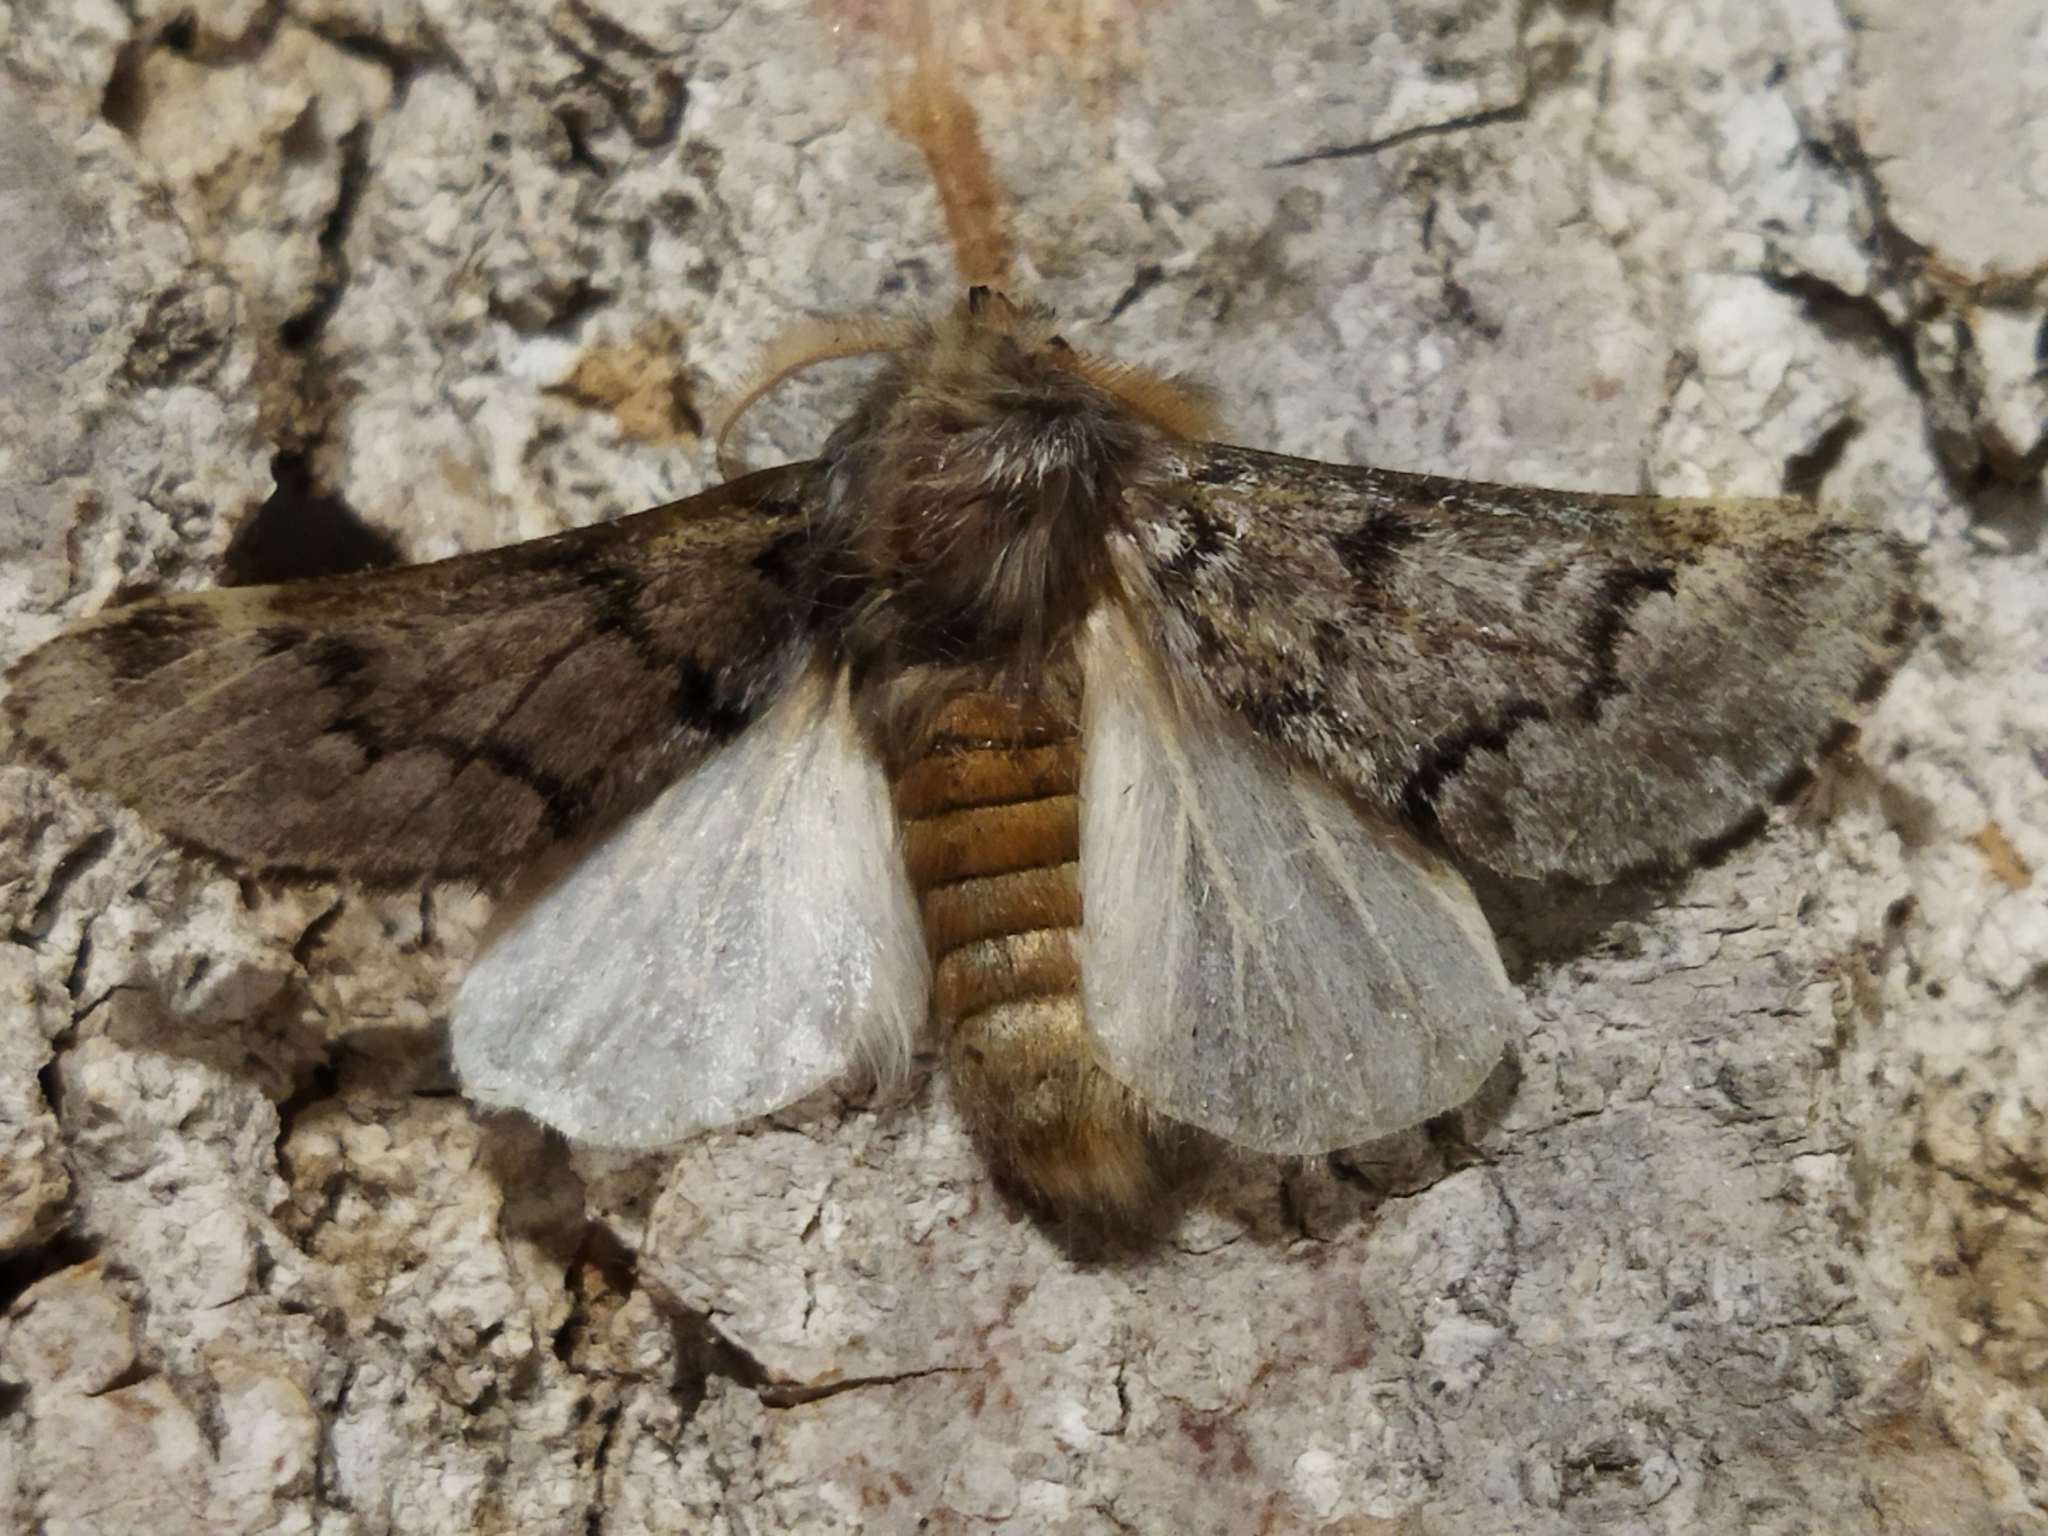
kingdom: Animalia
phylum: Arthropoda
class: Insecta
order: Lepidoptera
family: Notodontidae
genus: Thaumetopoea
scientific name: Thaumetopoea pityocampa
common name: Pine processionary
